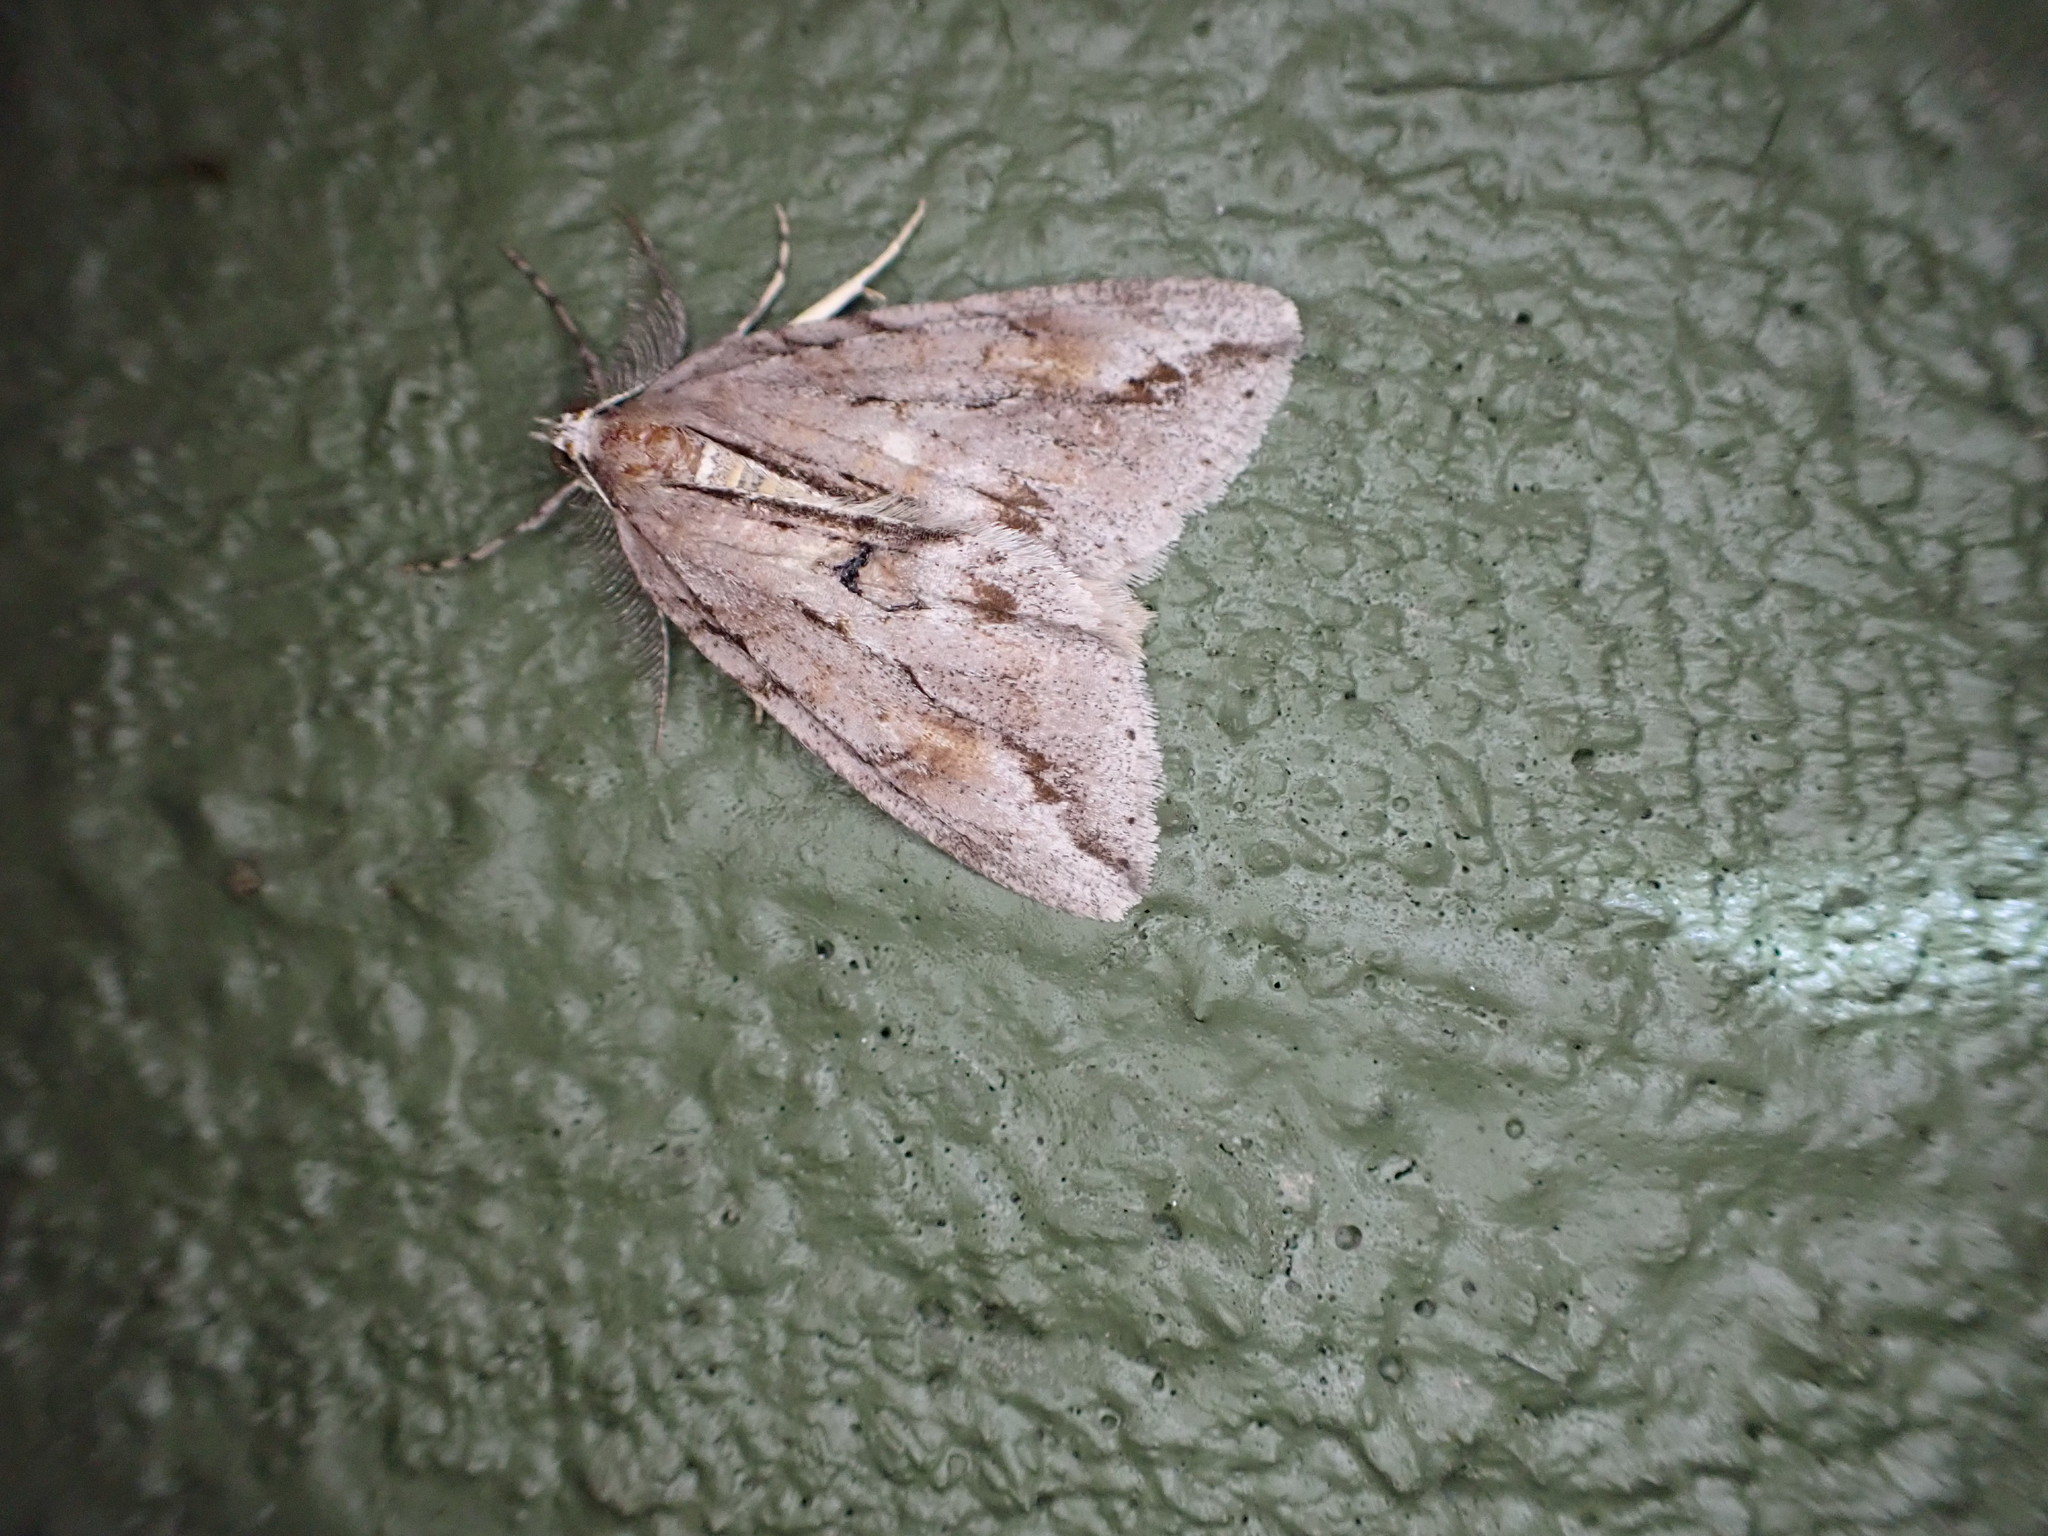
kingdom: Animalia
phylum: Arthropoda
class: Insecta
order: Lepidoptera
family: Geometridae
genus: Pseudocoremia
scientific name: Pseudocoremia lupinata
